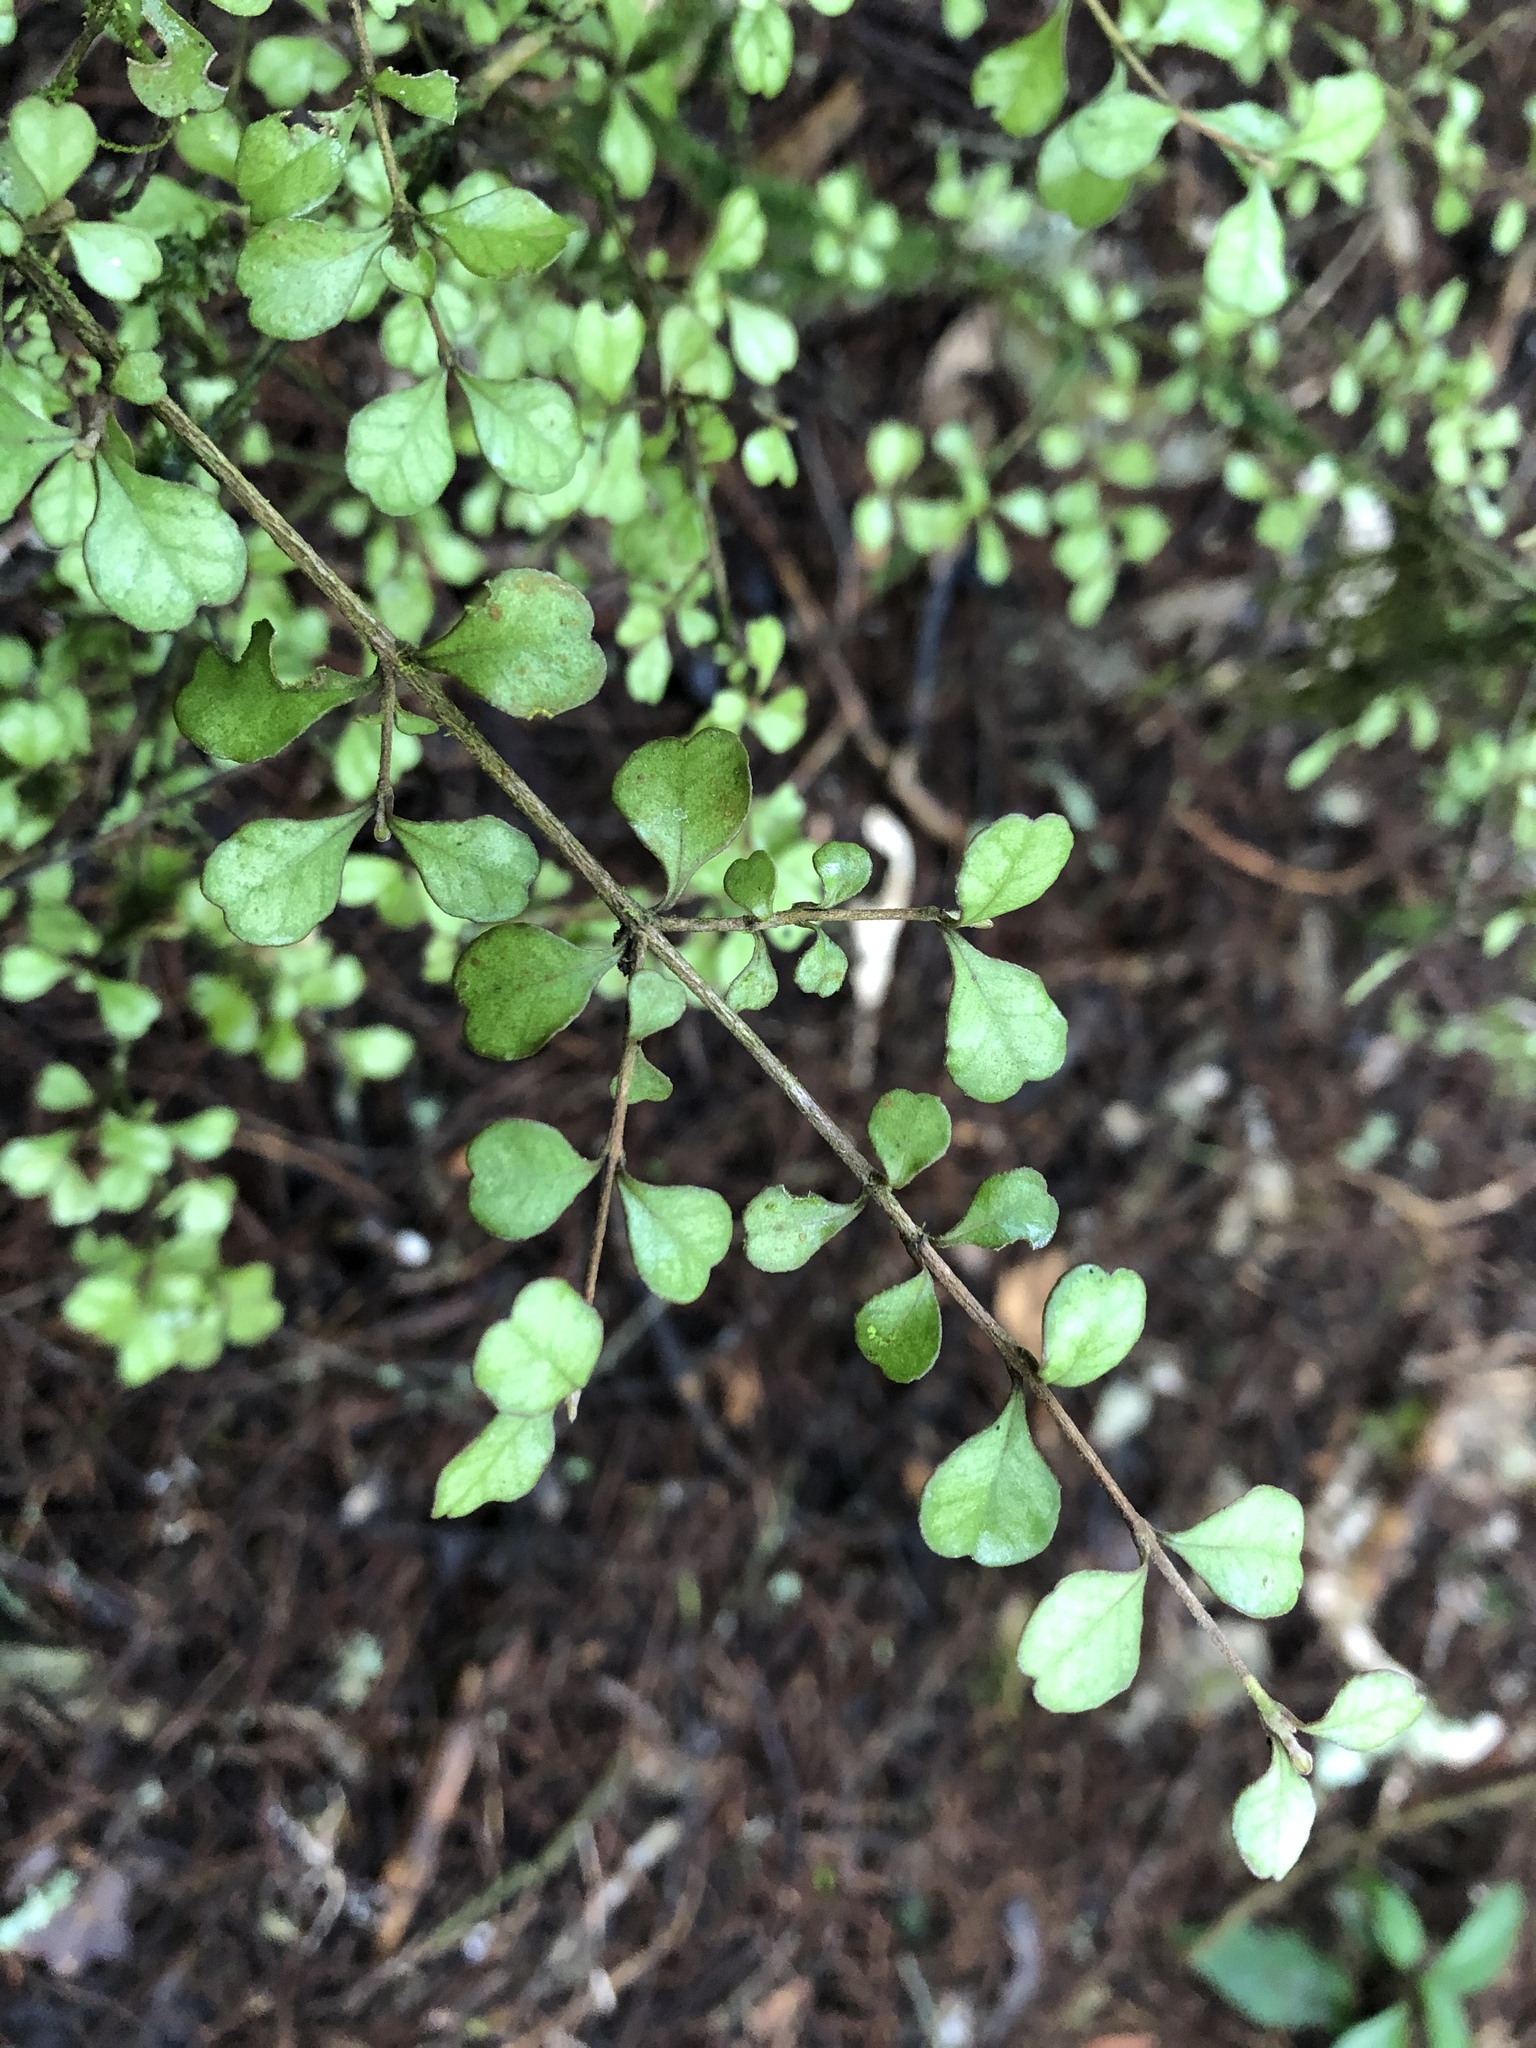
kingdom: Plantae
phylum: Tracheophyta
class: Magnoliopsida
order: Myrtales
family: Myrtaceae
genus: Lophomyrtus
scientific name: Lophomyrtus obcordata
